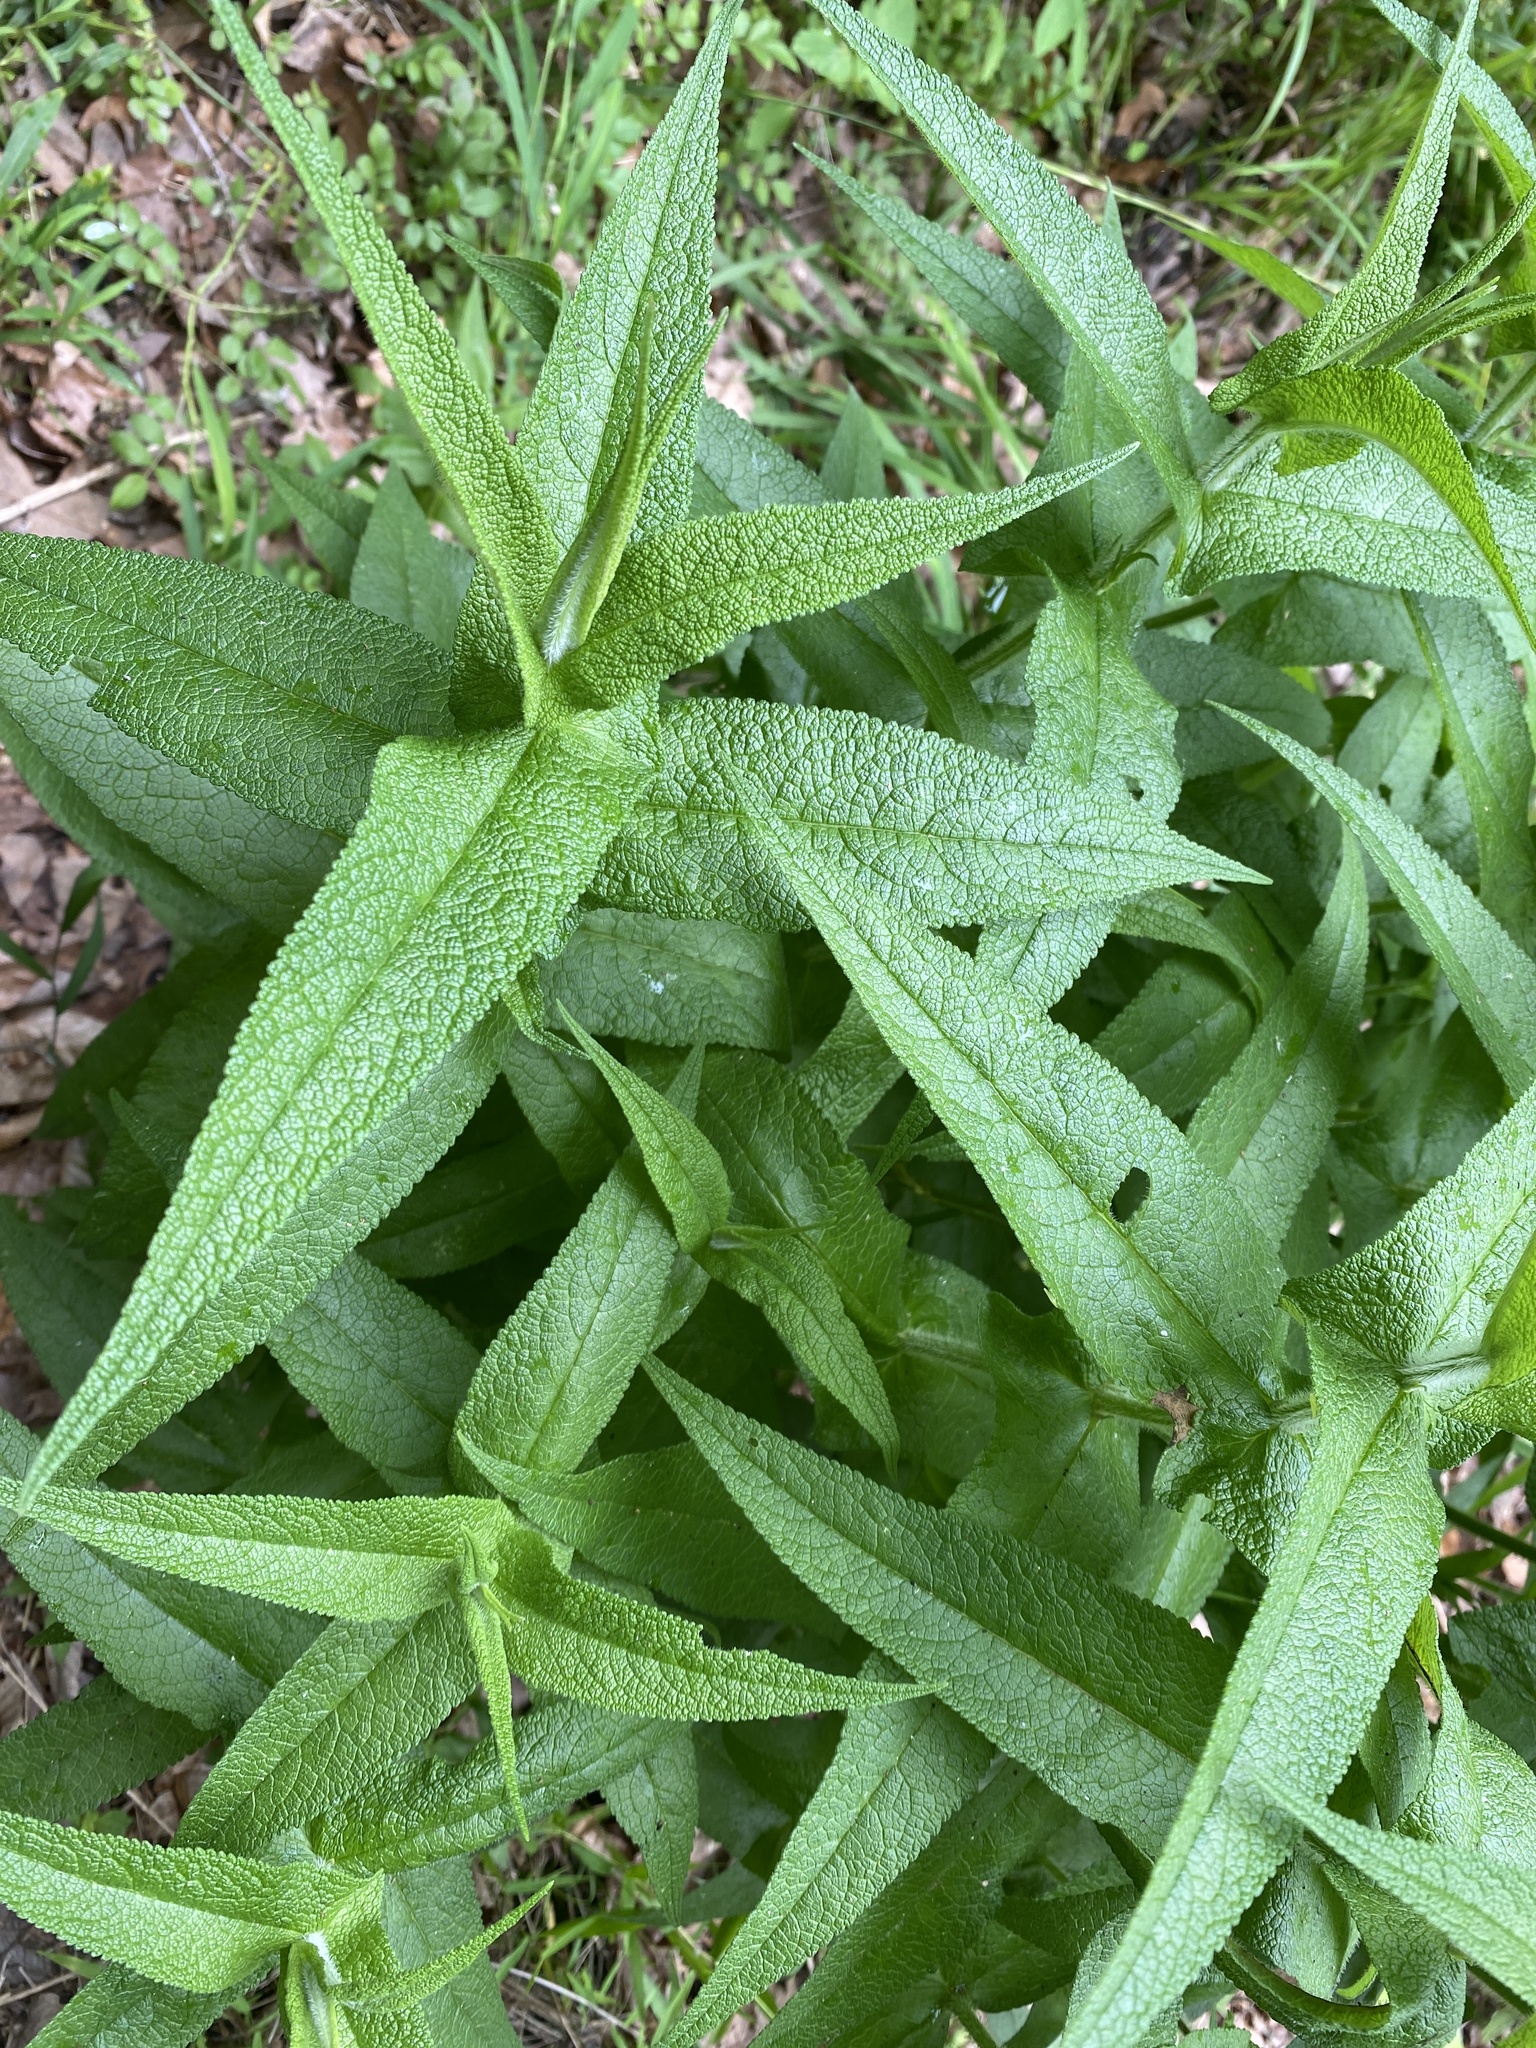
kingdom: Plantae
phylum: Tracheophyta
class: Magnoliopsida
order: Asterales
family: Asteraceae
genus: Eupatorium
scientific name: Eupatorium perfoliatum
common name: Boneset
